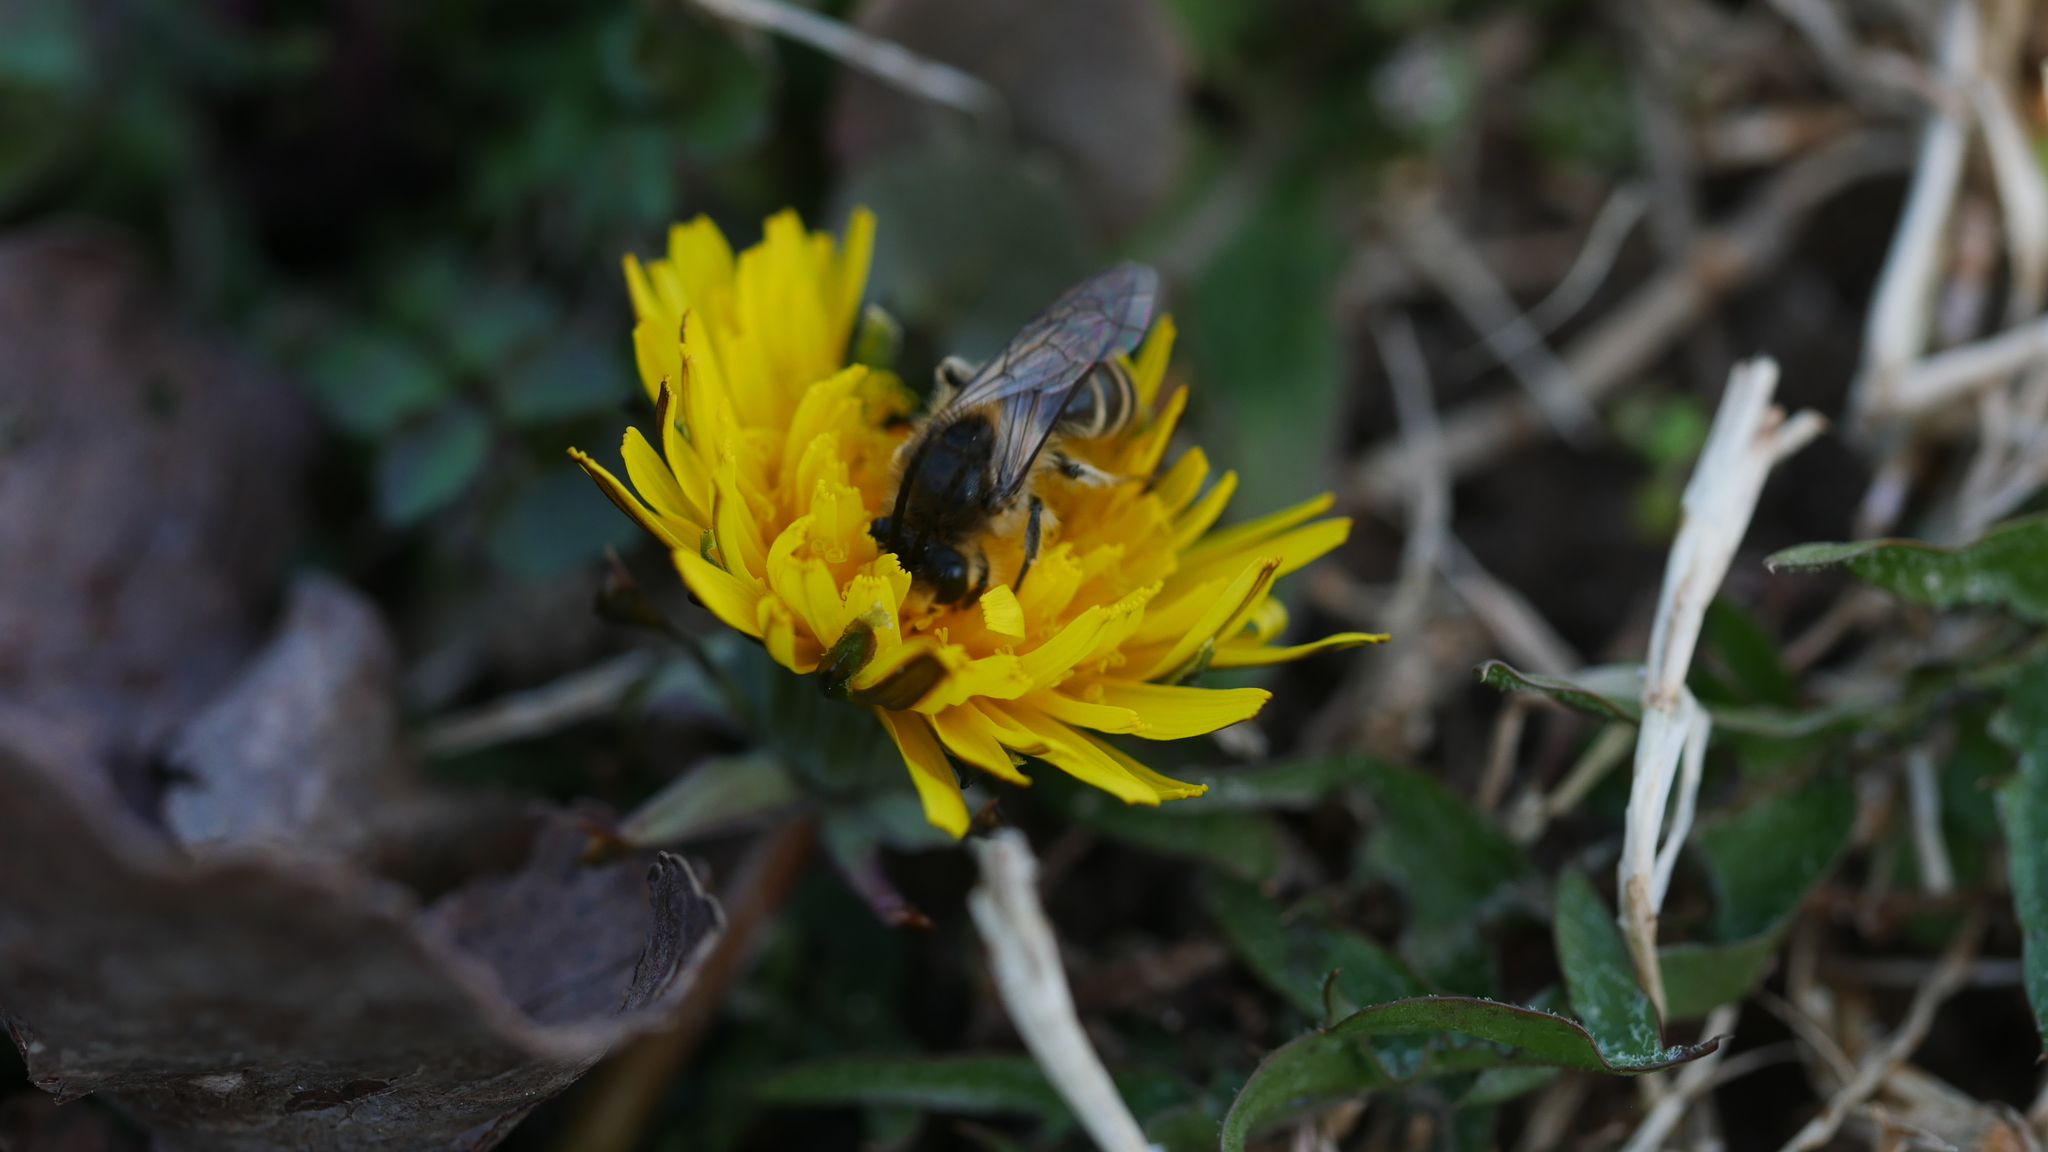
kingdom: Animalia
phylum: Arthropoda
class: Insecta
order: Hymenoptera
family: Colletidae
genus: Colletes
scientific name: Colletes inaequalis
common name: Unequal cellophane bee
